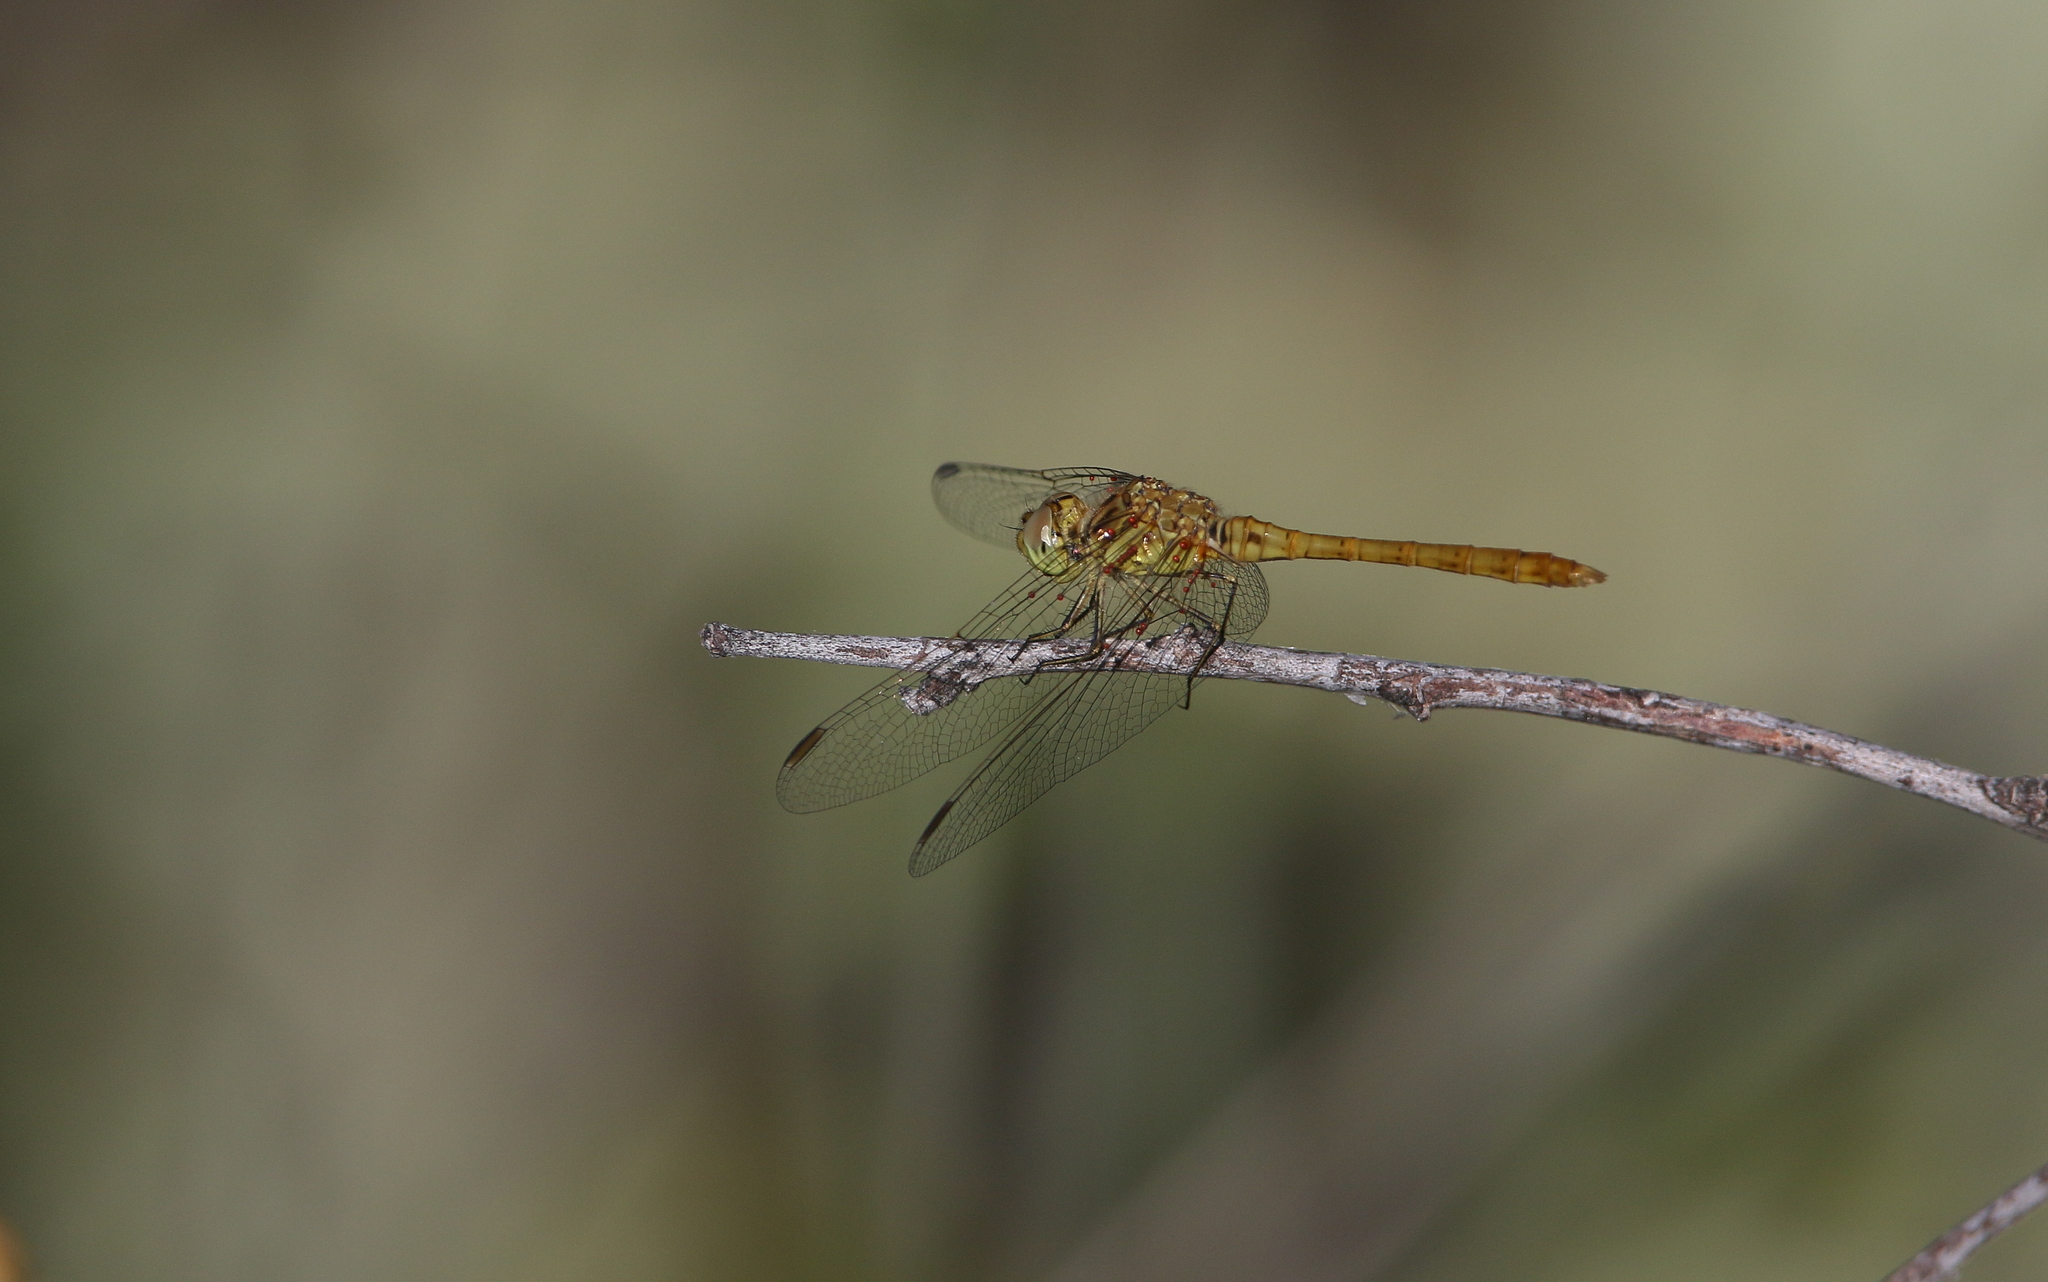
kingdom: Animalia
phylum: Arthropoda
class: Insecta
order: Odonata
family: Libellulidae
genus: Sympetrum
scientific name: Sympetrum meridionale
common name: Southern darter
